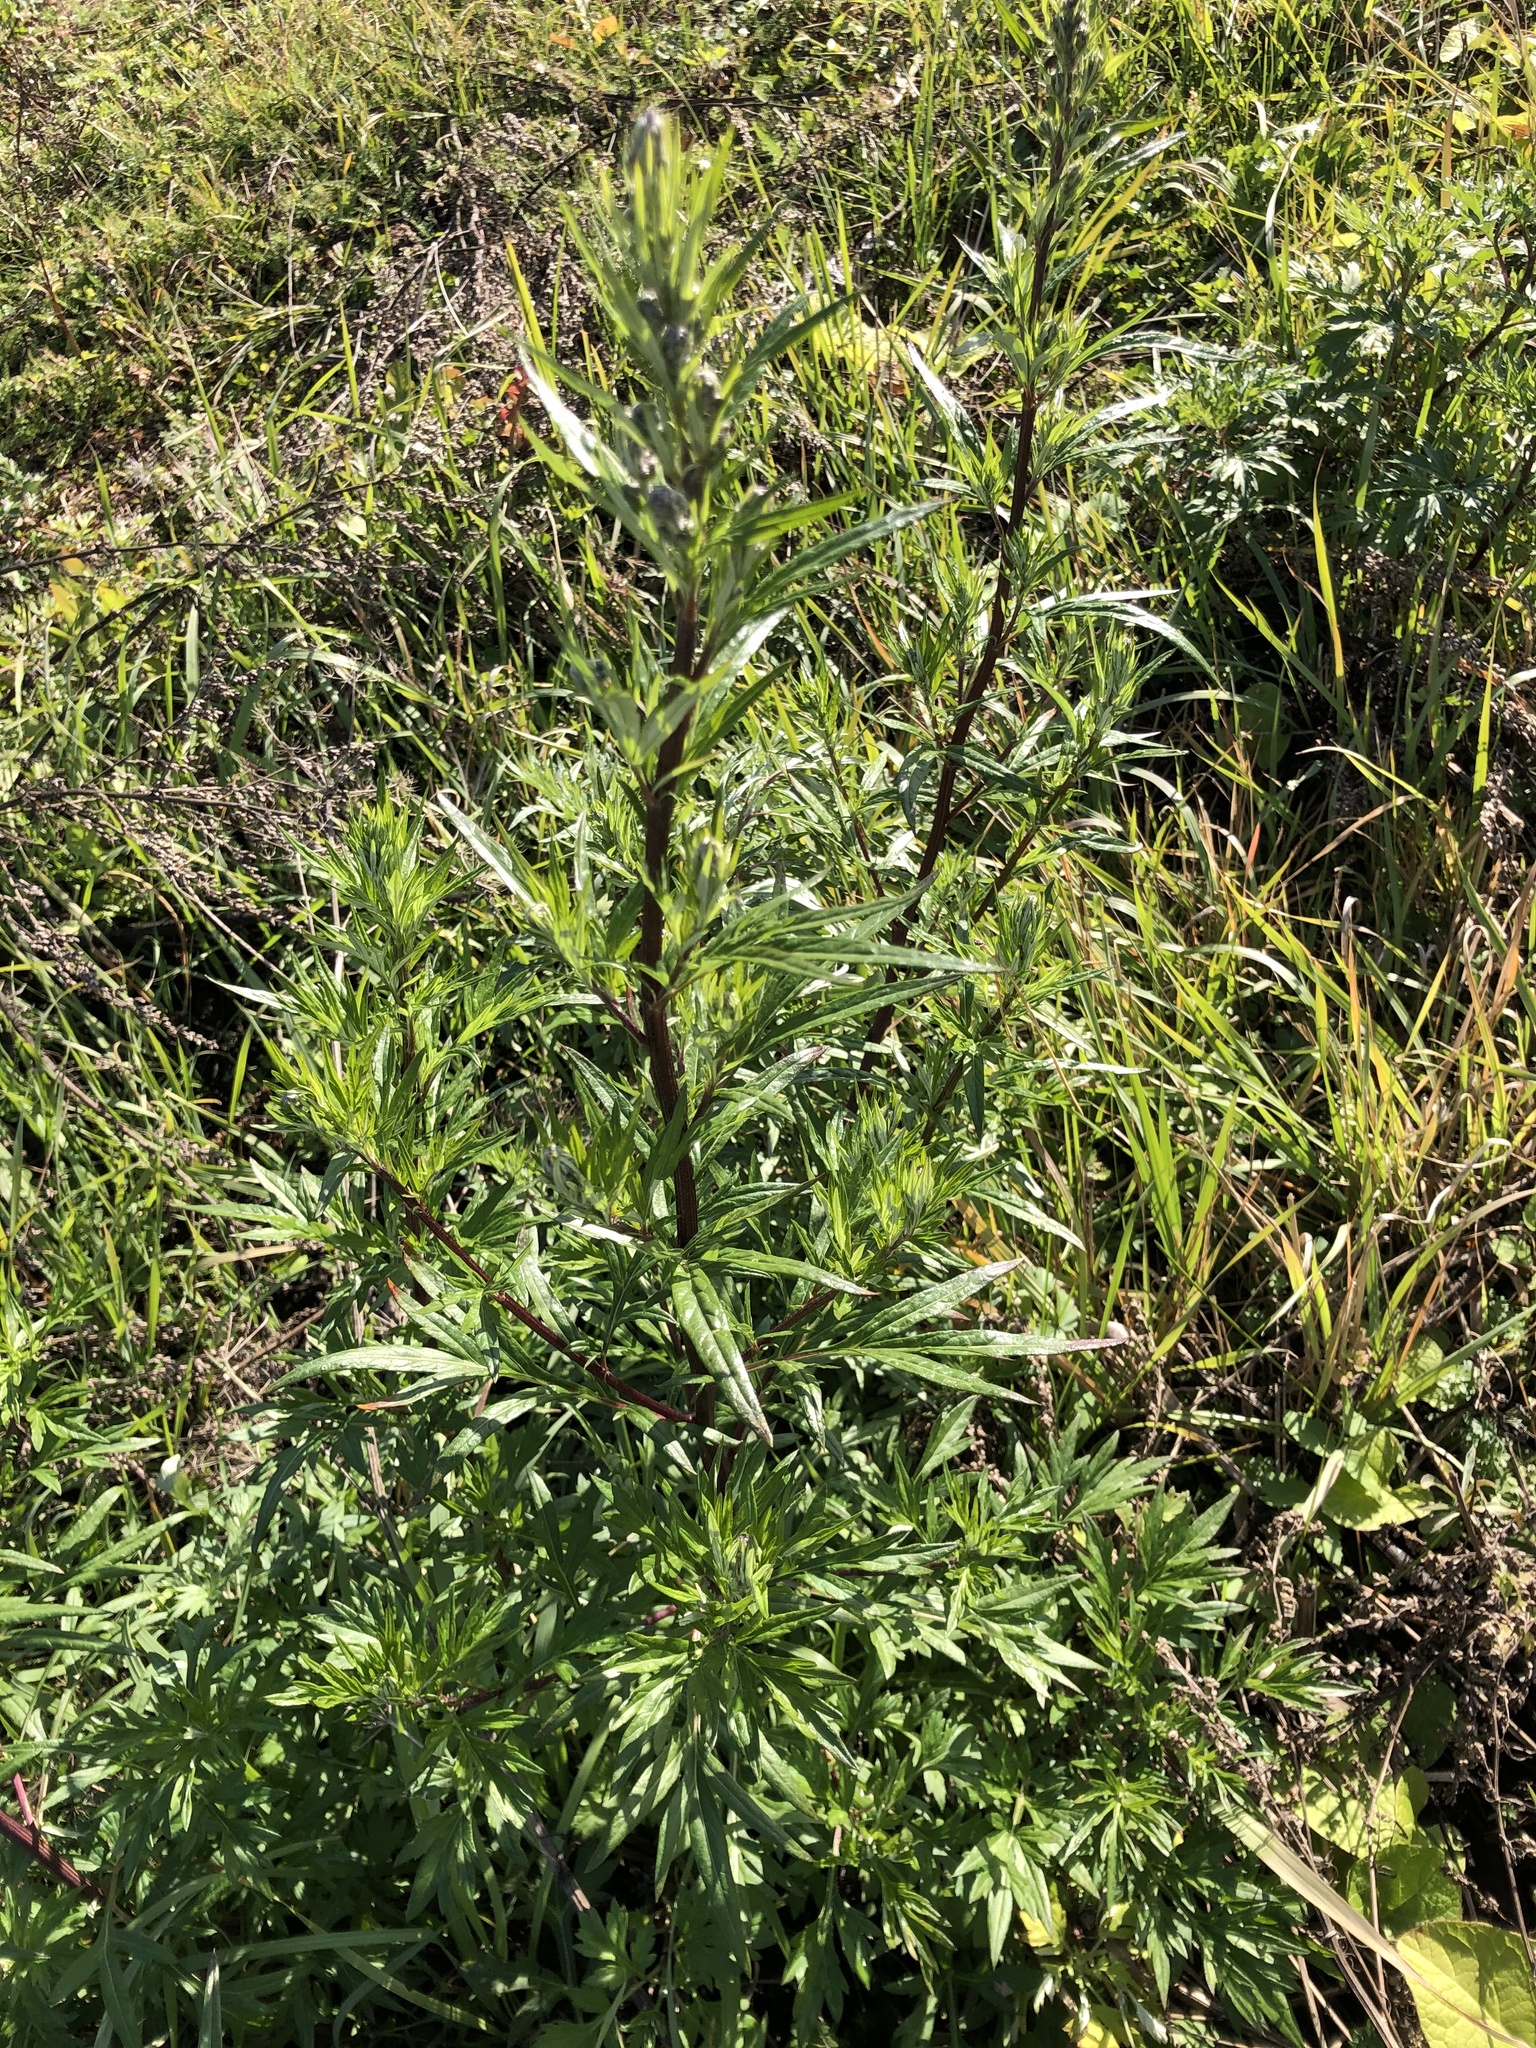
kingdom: Plantae
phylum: Tracheophyta
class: Magnoliopsida
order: Asterales
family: Asteraceae
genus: Artemisia
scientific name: Artemisia vulgaris
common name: Mugwort
